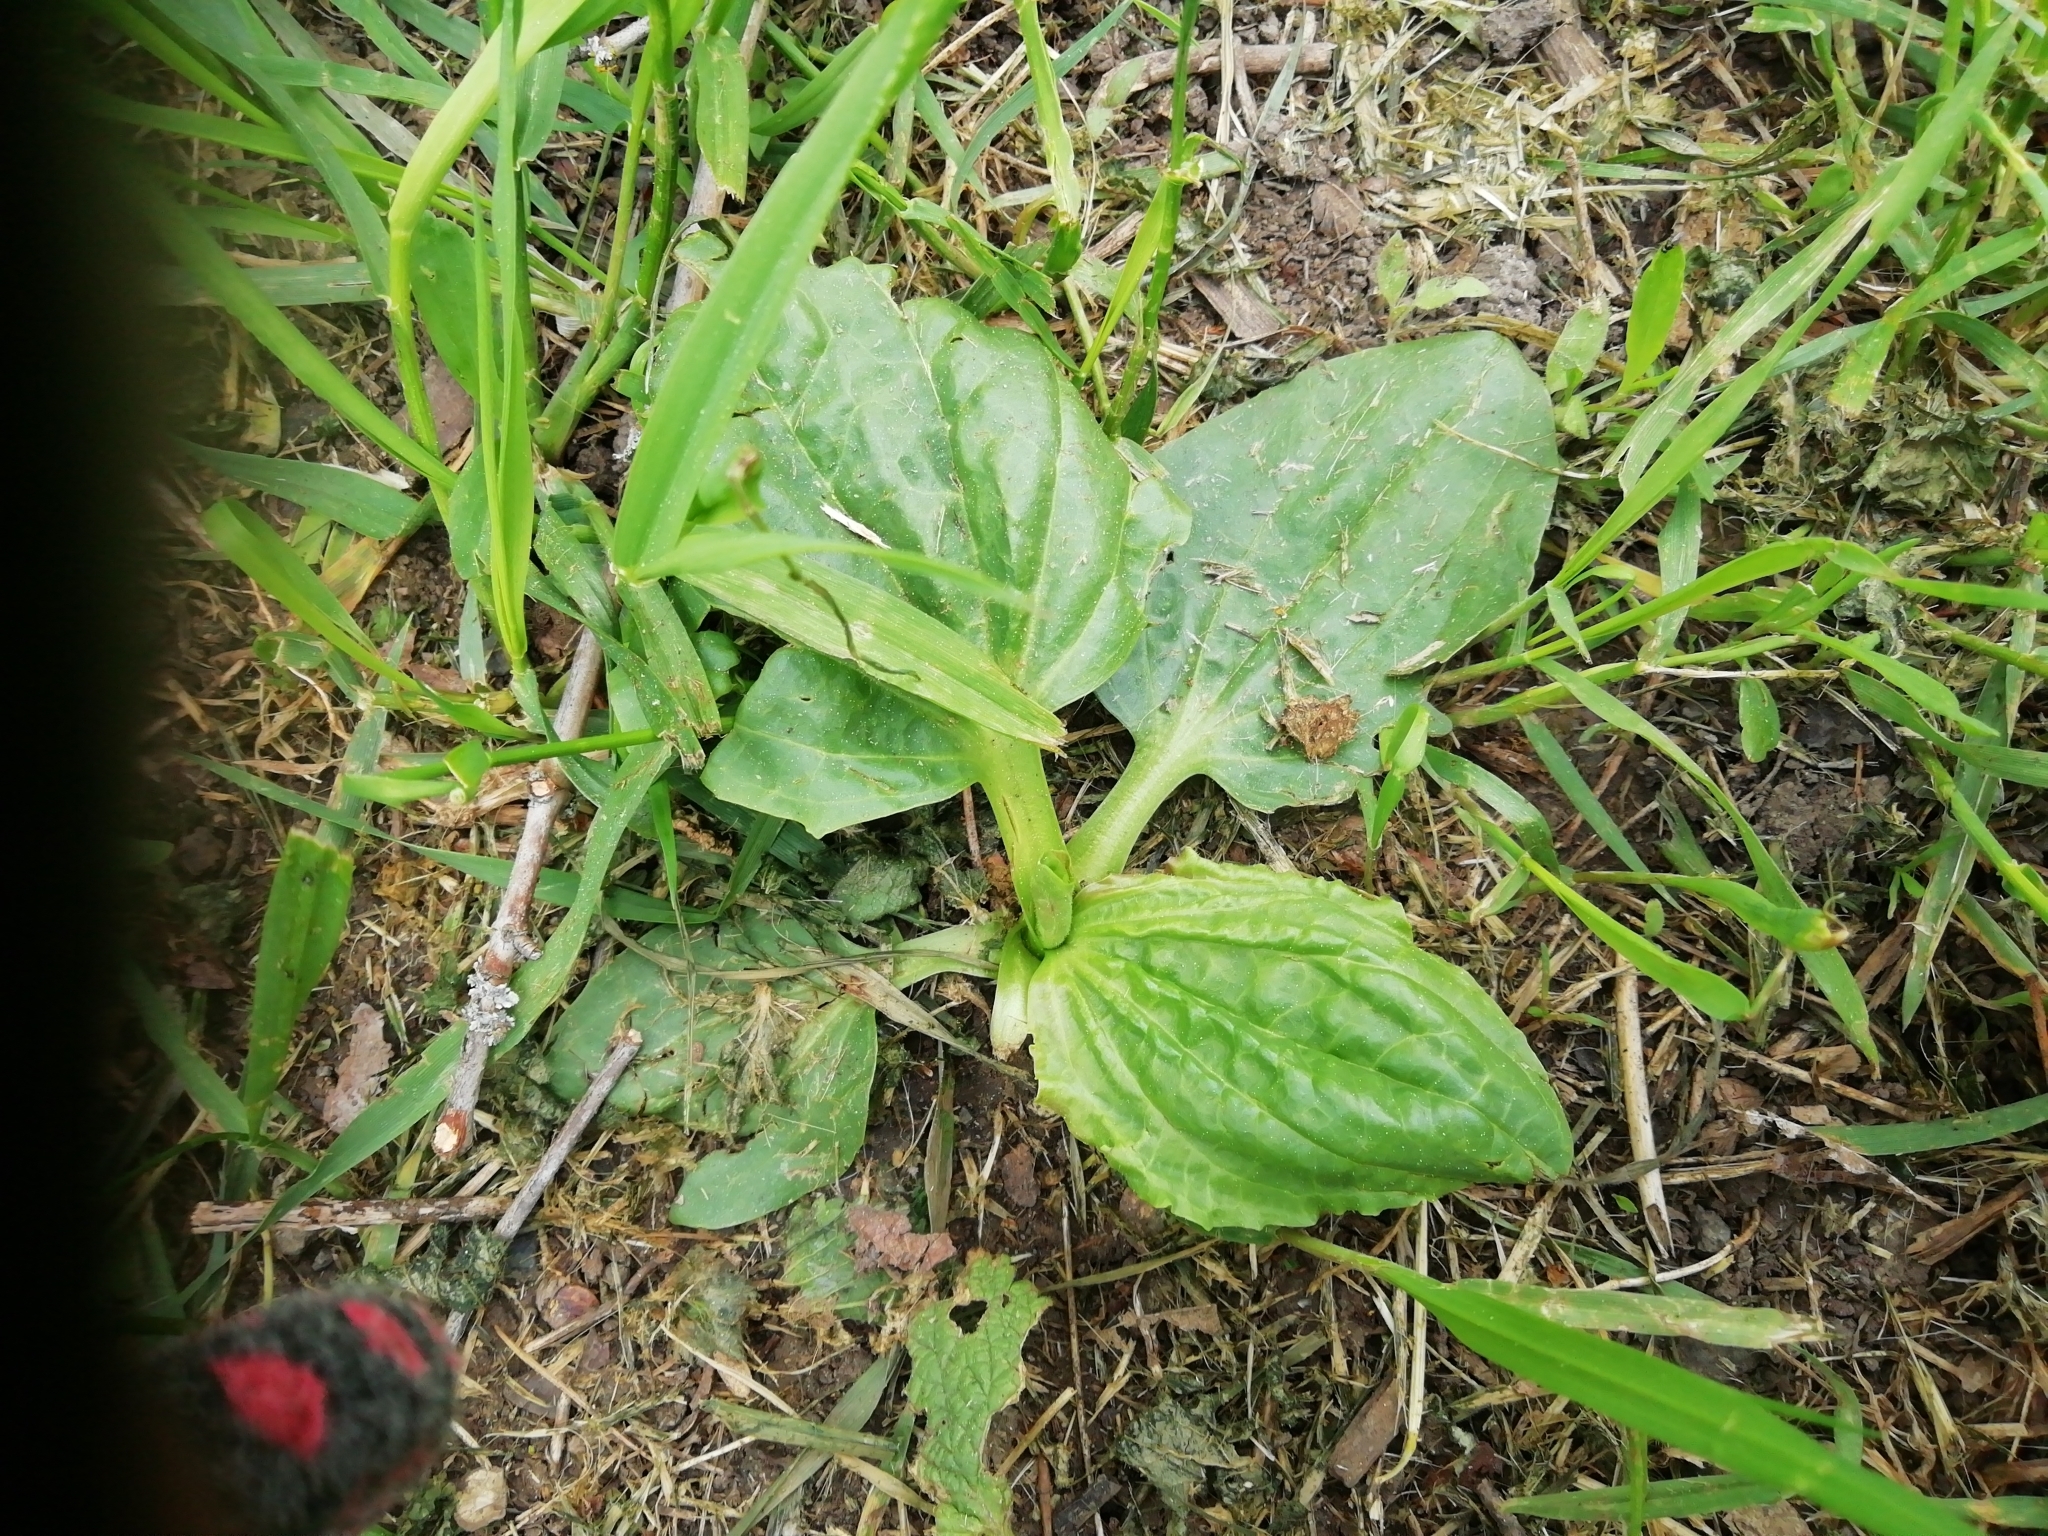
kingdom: Plantae
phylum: Tracheophyta
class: Magnoliopsida
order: Lamiales
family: Plantaginaceae
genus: Plantago
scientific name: Plantago major
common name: Common plantain
